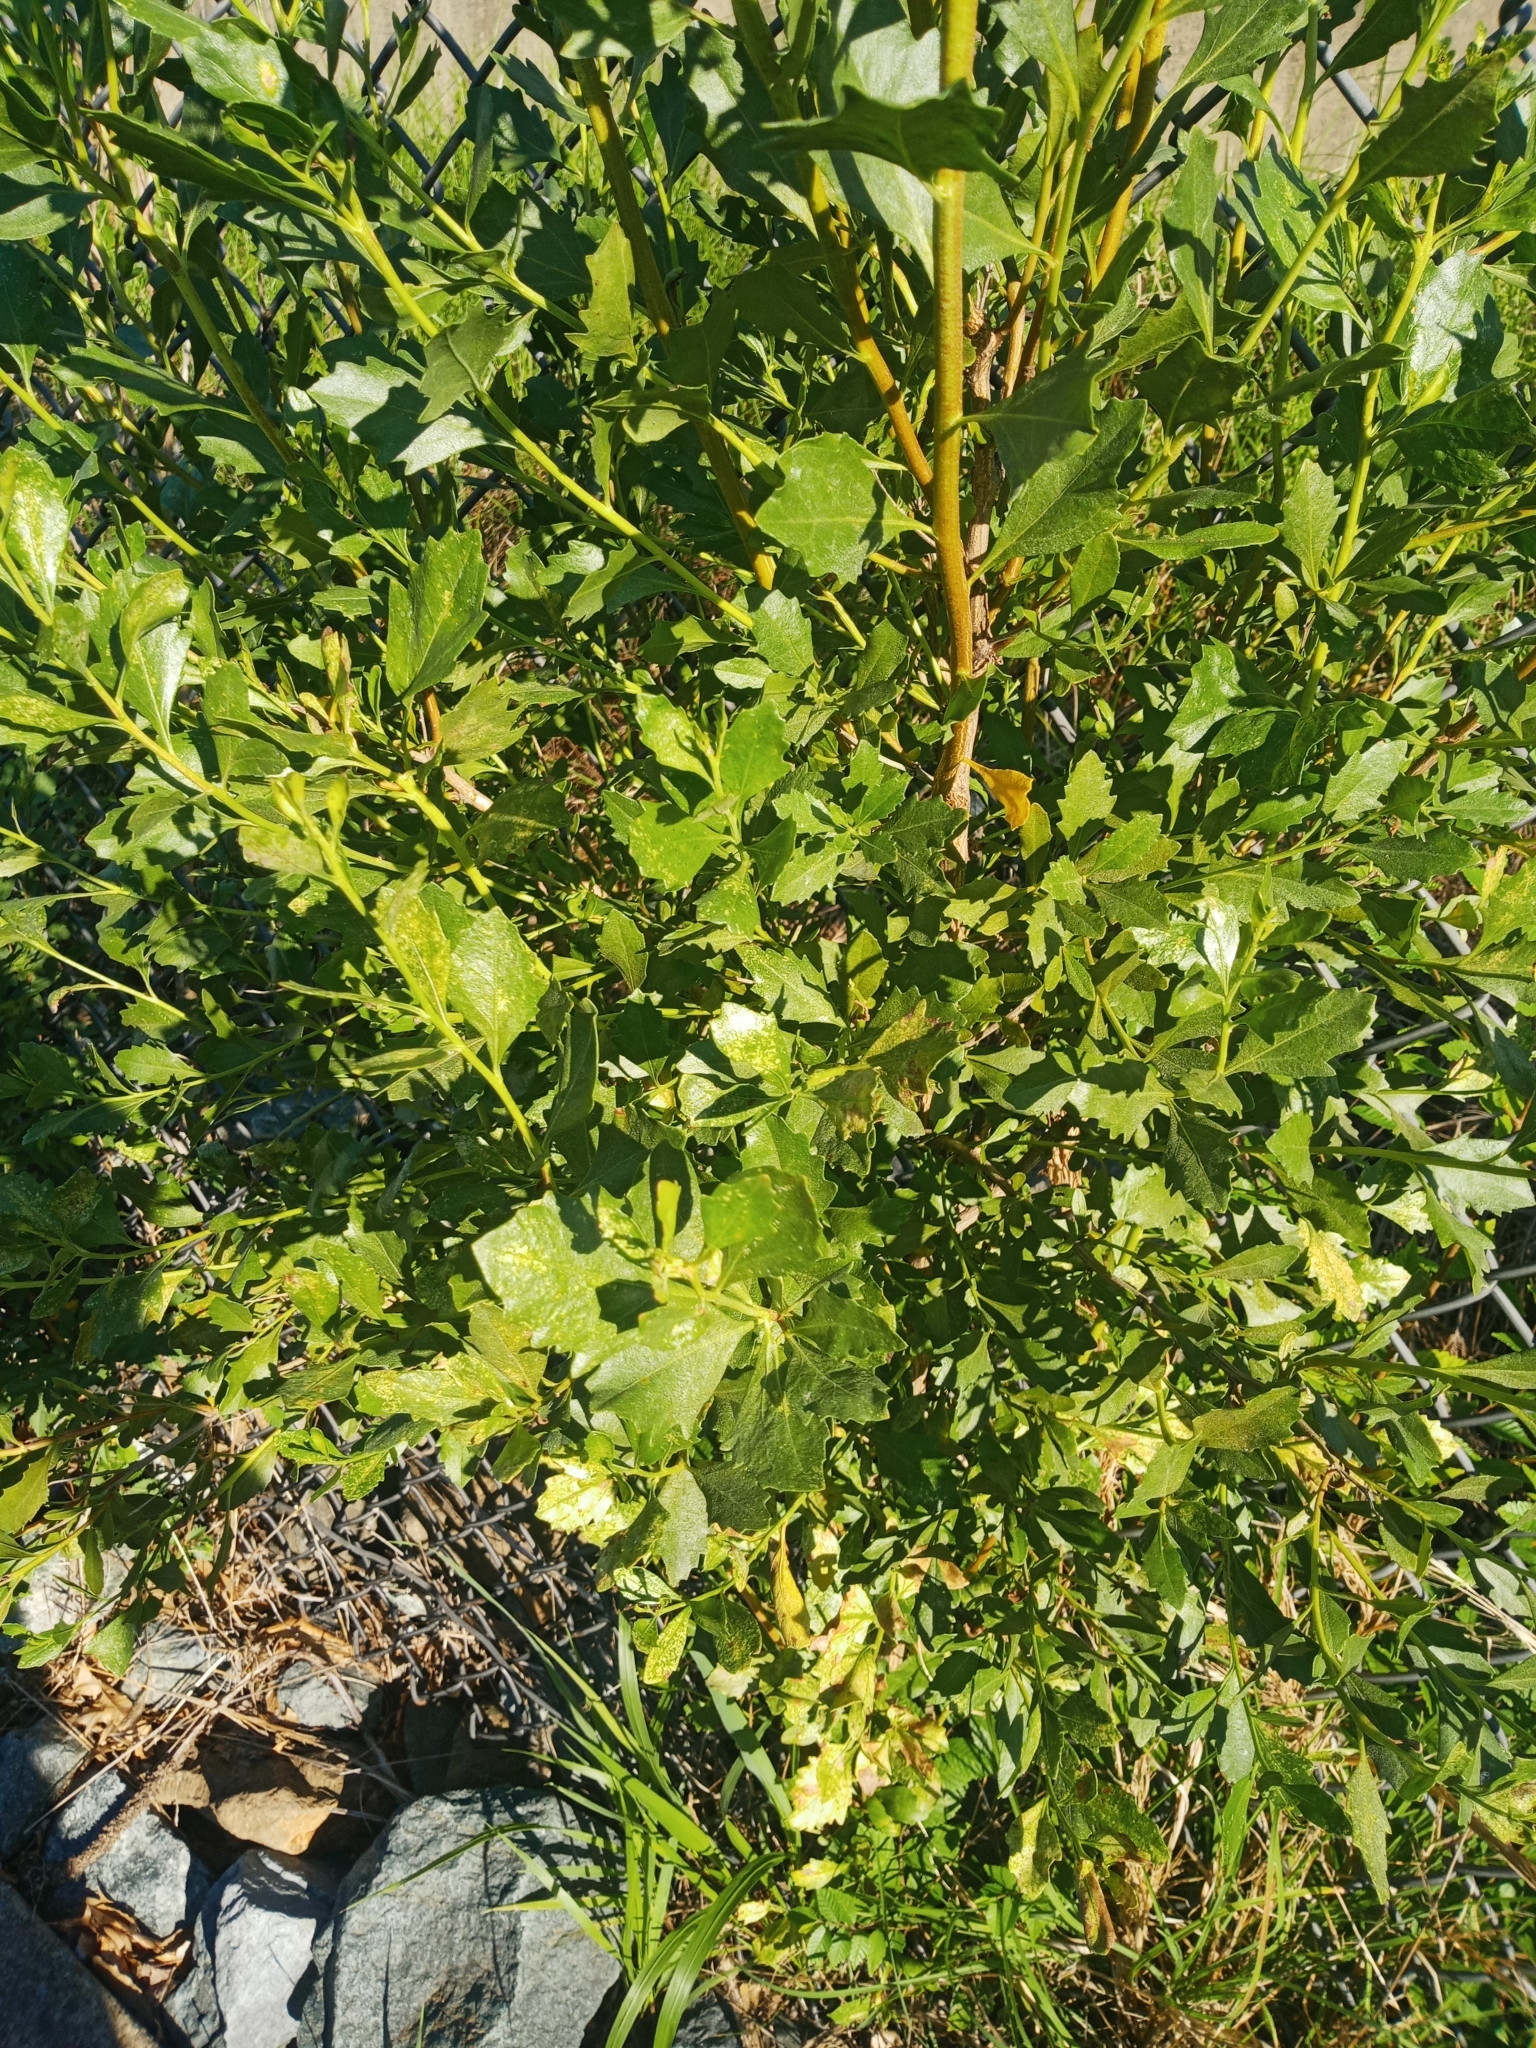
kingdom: Plantae
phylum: Tracheophyta
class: Magnoliopsida
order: Asterales
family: Asteraceae
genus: Baccharis
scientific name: Baccharis halimifolia
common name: Eastern baccharis
